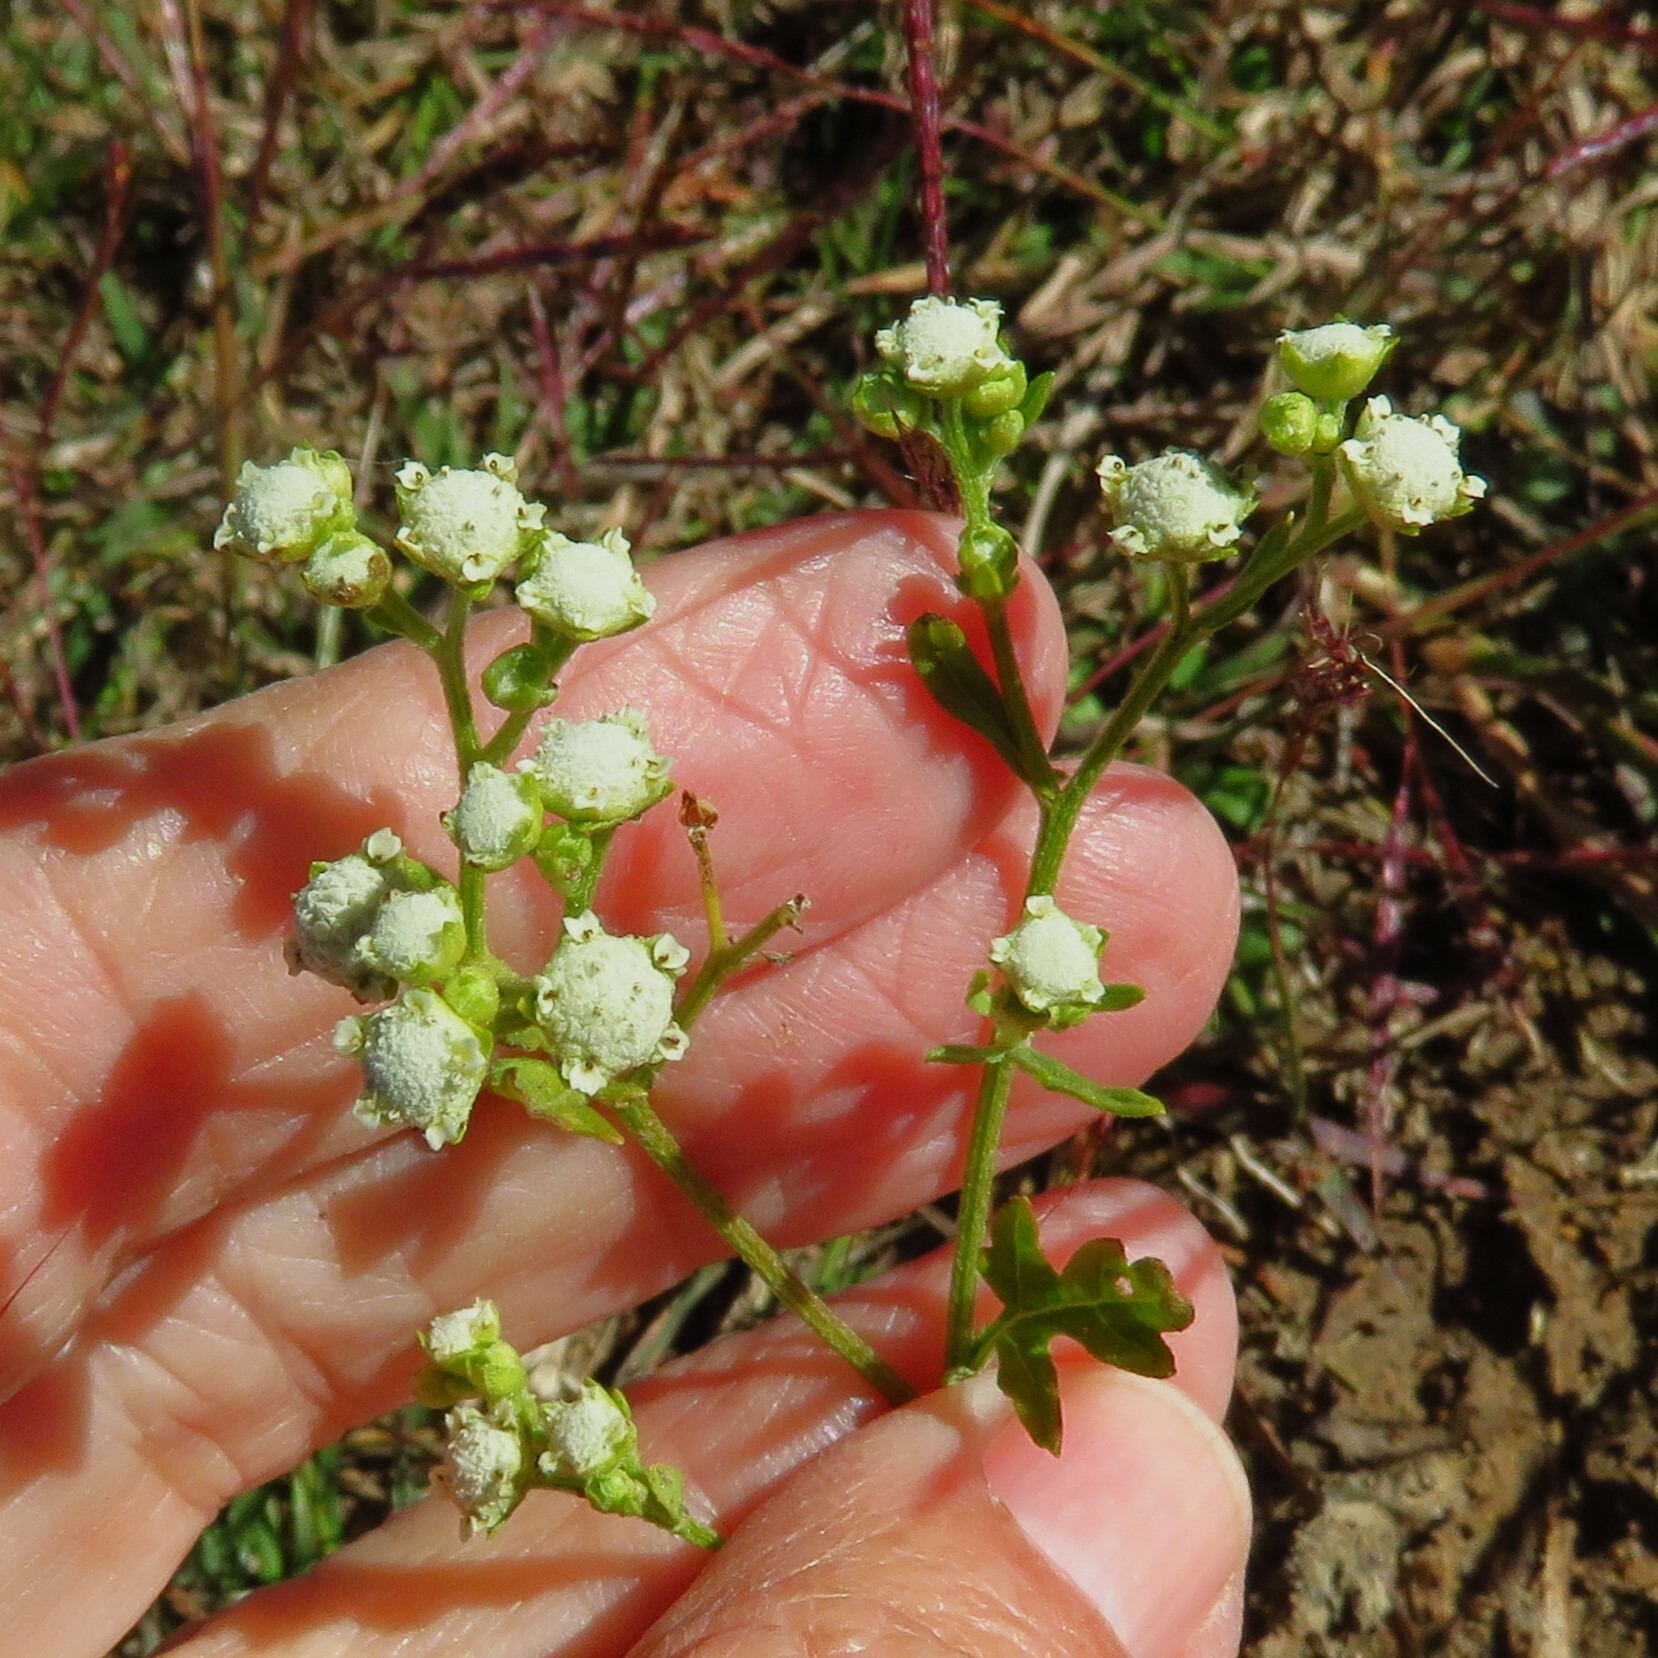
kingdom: Plantae
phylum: Tracheophyta
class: Magnoliopsida
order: Asterales
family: Asteraceae
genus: Parthenium
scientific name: Parthenium hysterophorus
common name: Santa maria feverfew
